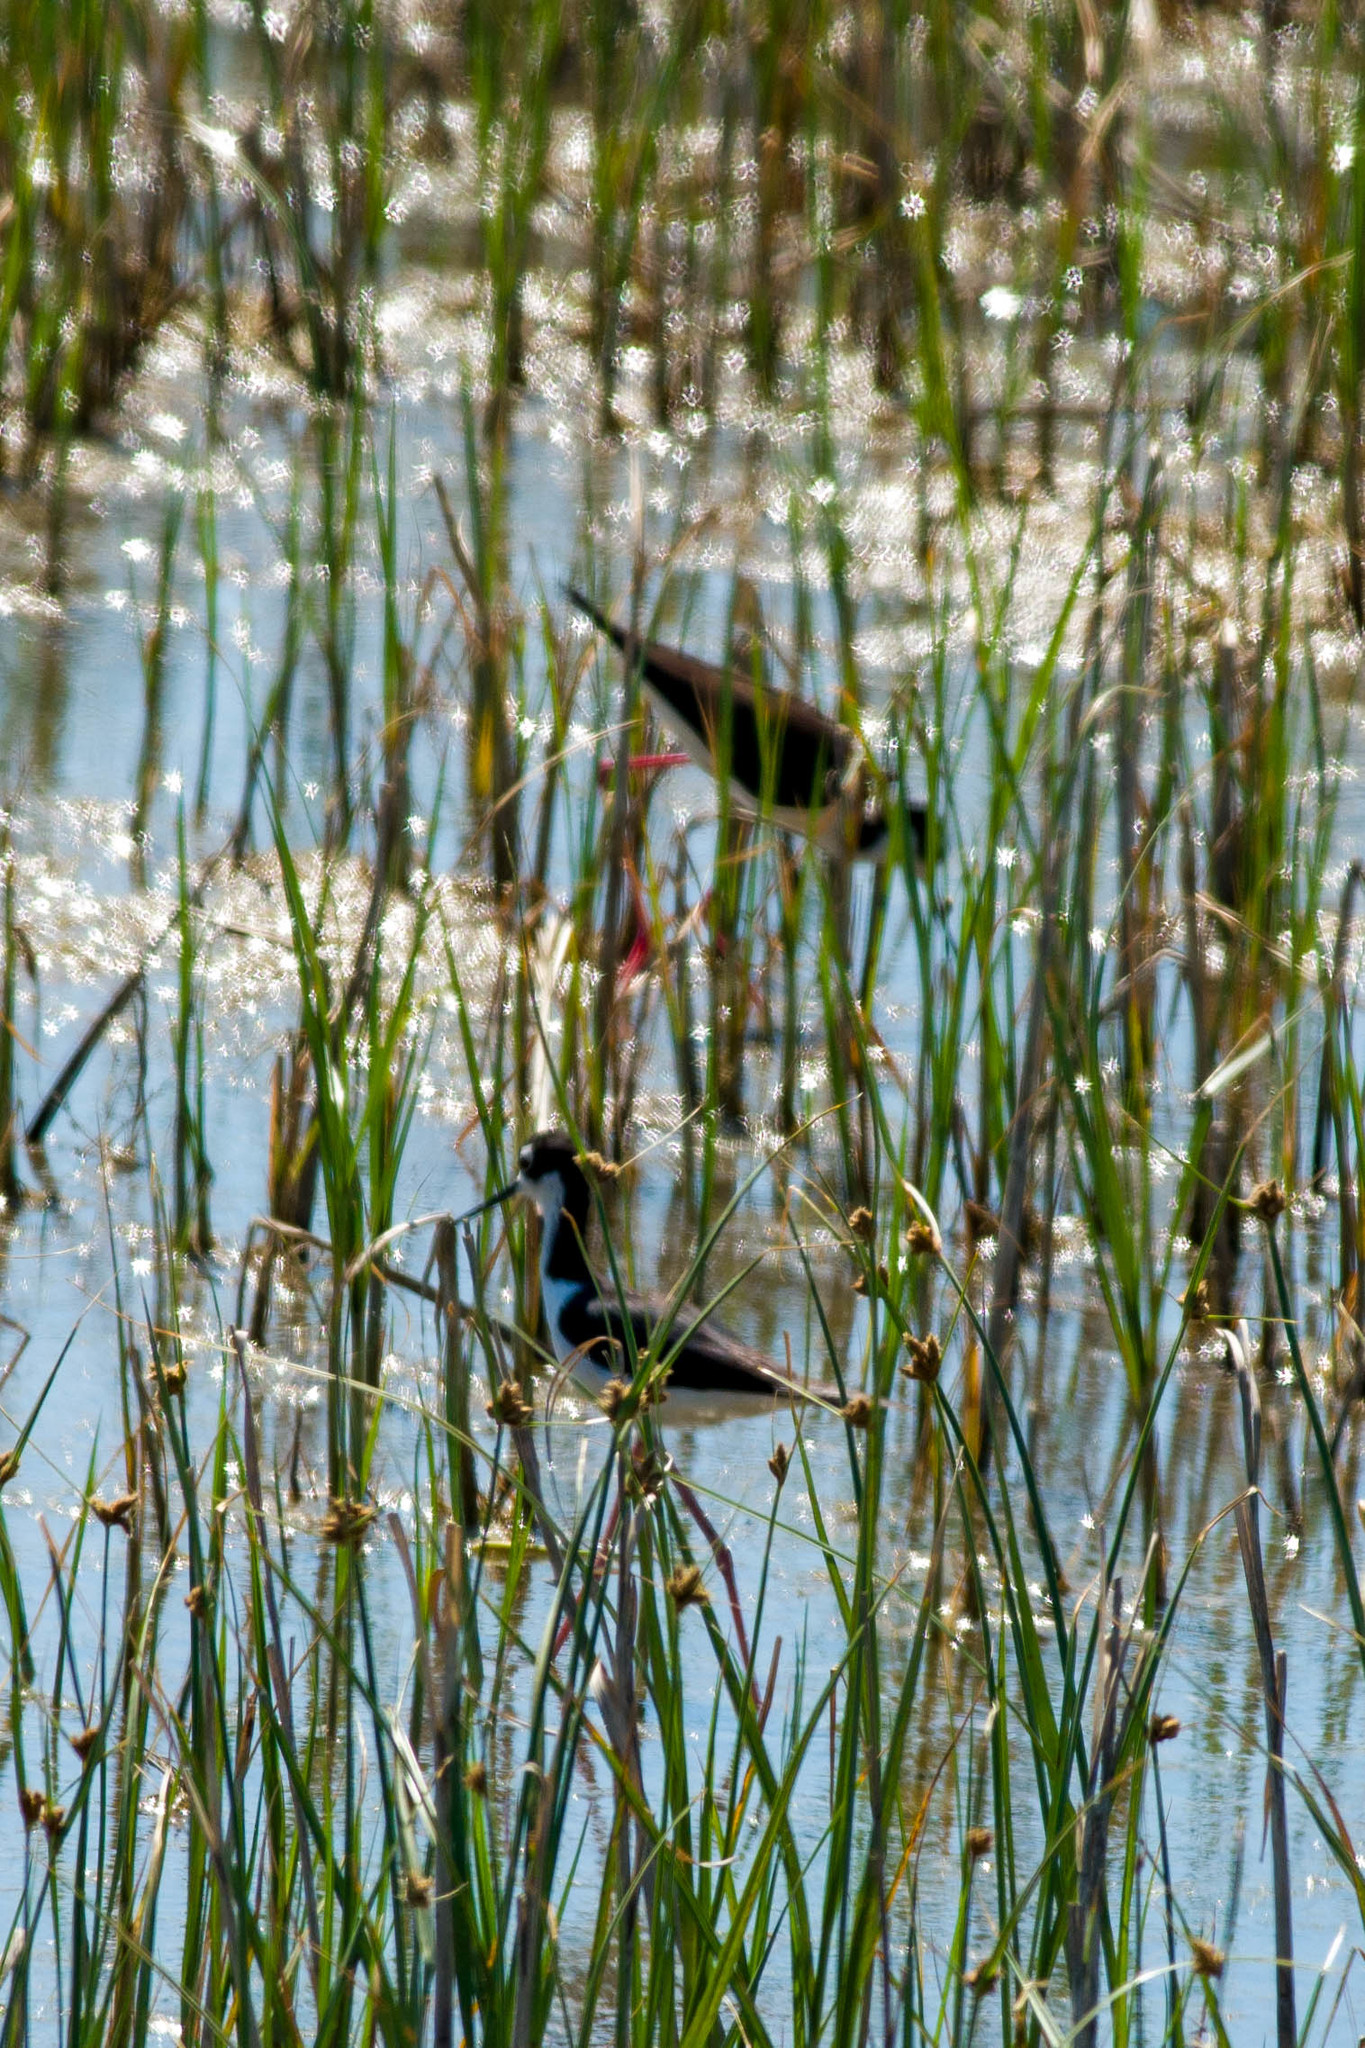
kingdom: Animalia
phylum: Chordata
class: Aves
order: Charadriiformes
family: Recurvirostridae
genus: Himantopus
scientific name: Himantopus mexicanus
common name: Black-necked stilt
